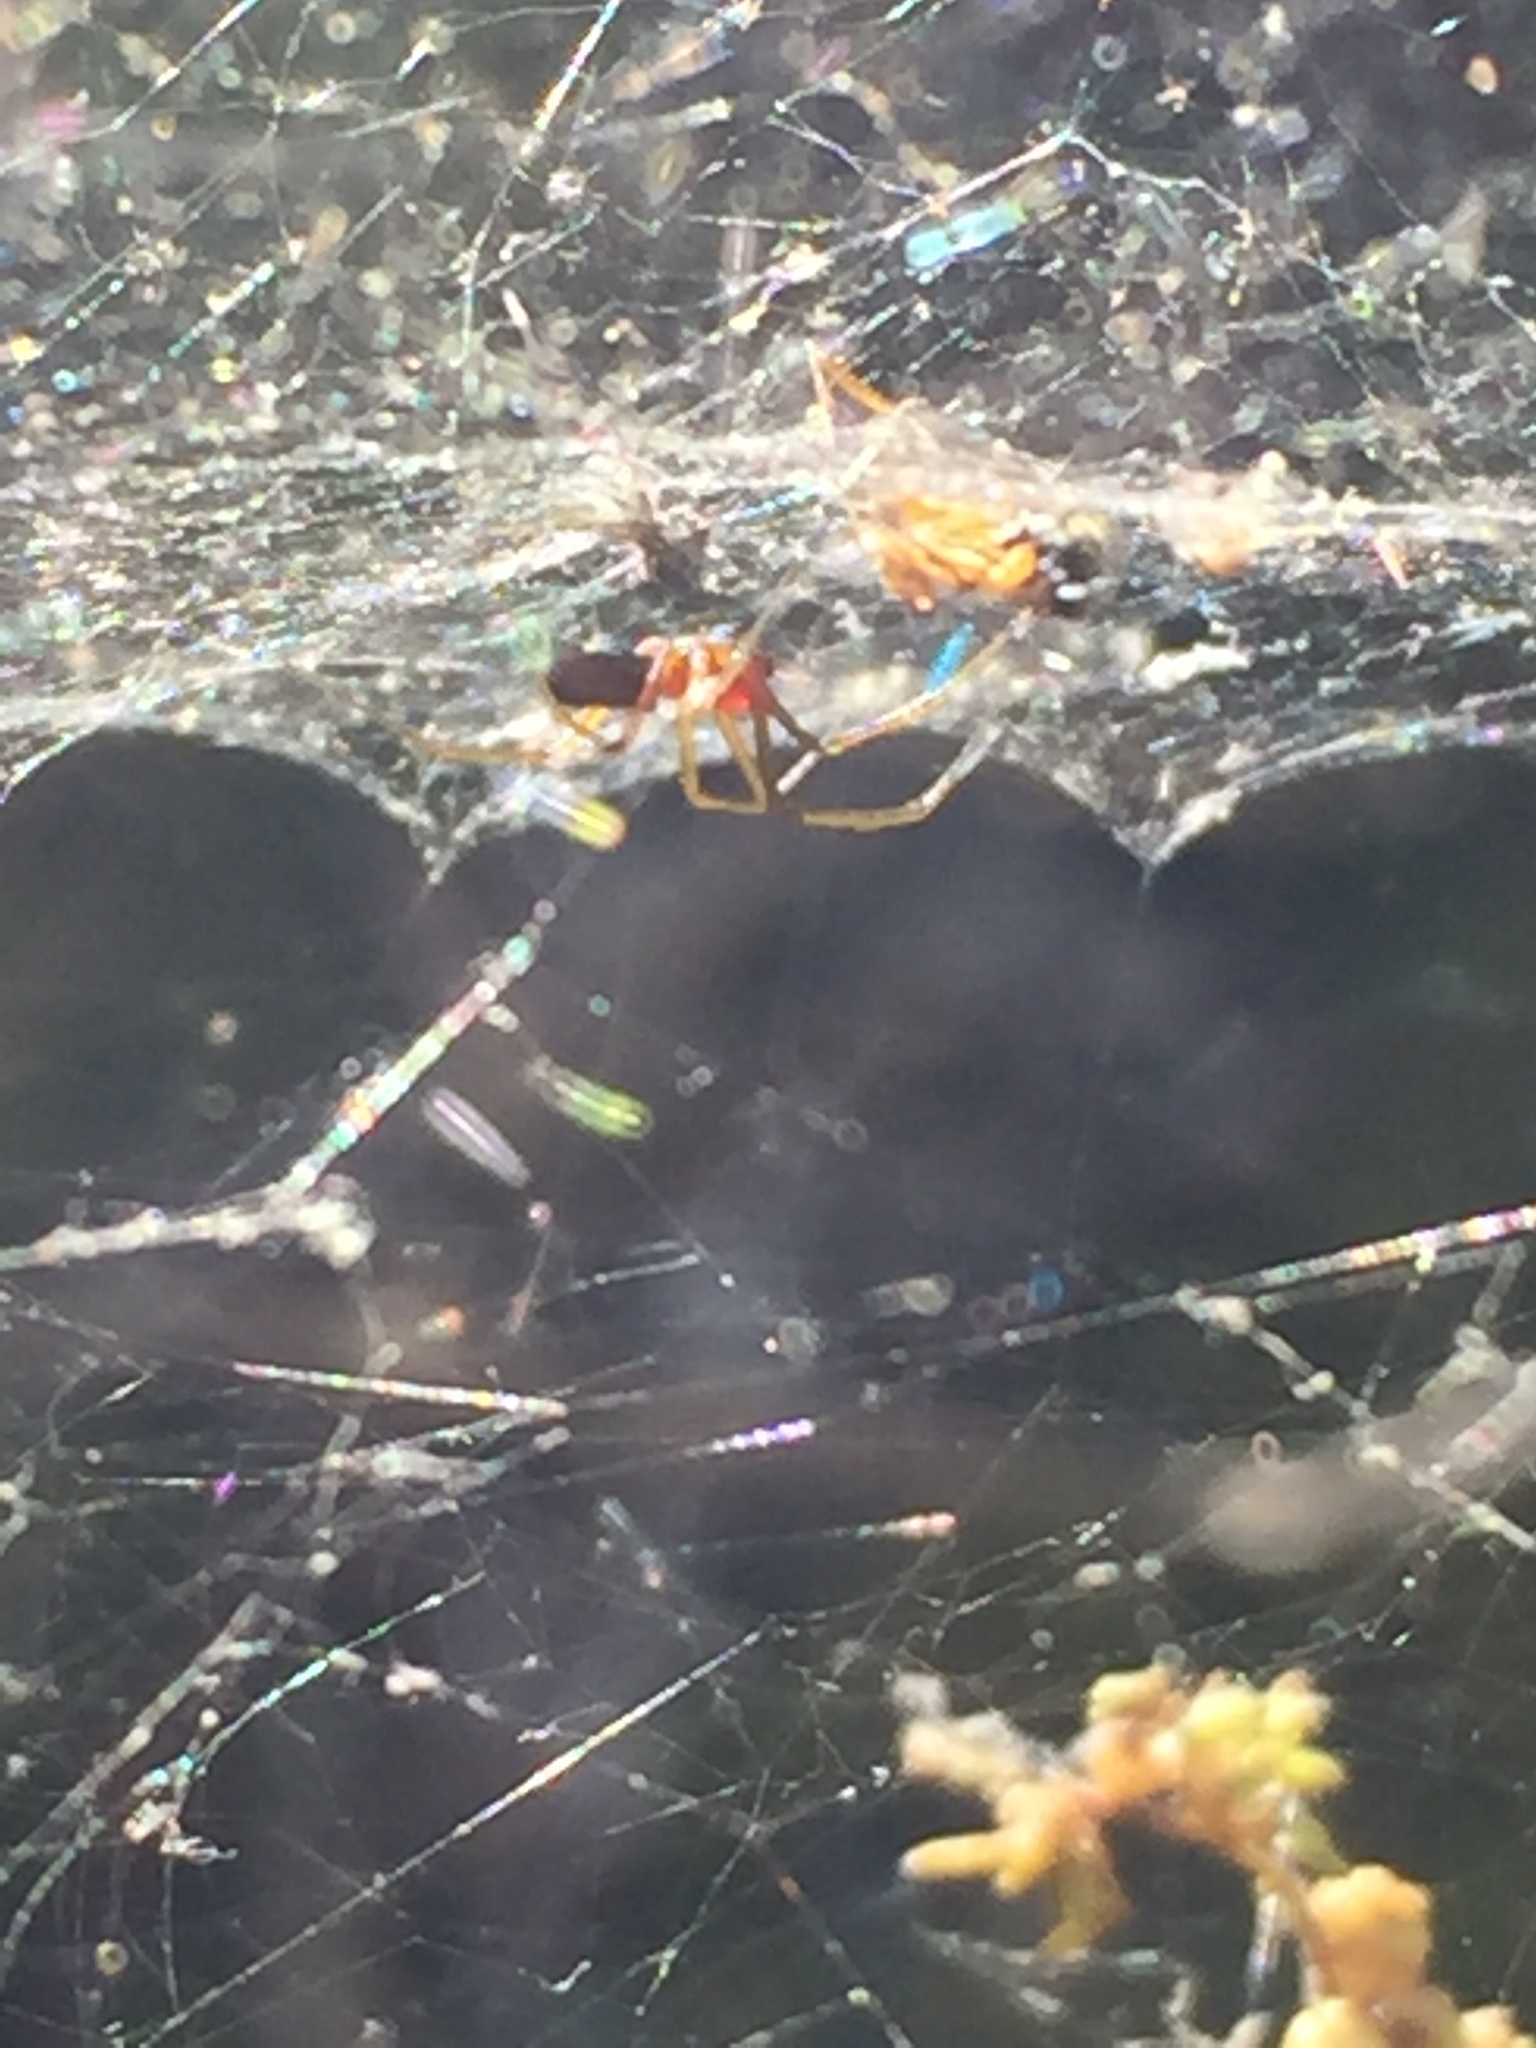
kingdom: Animalia
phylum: Arthropoda
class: Arachnida
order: Araneae
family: Linyphiidae
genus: Frontinella
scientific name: Frontinella pyramitela
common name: Bowl-and-doily spider
